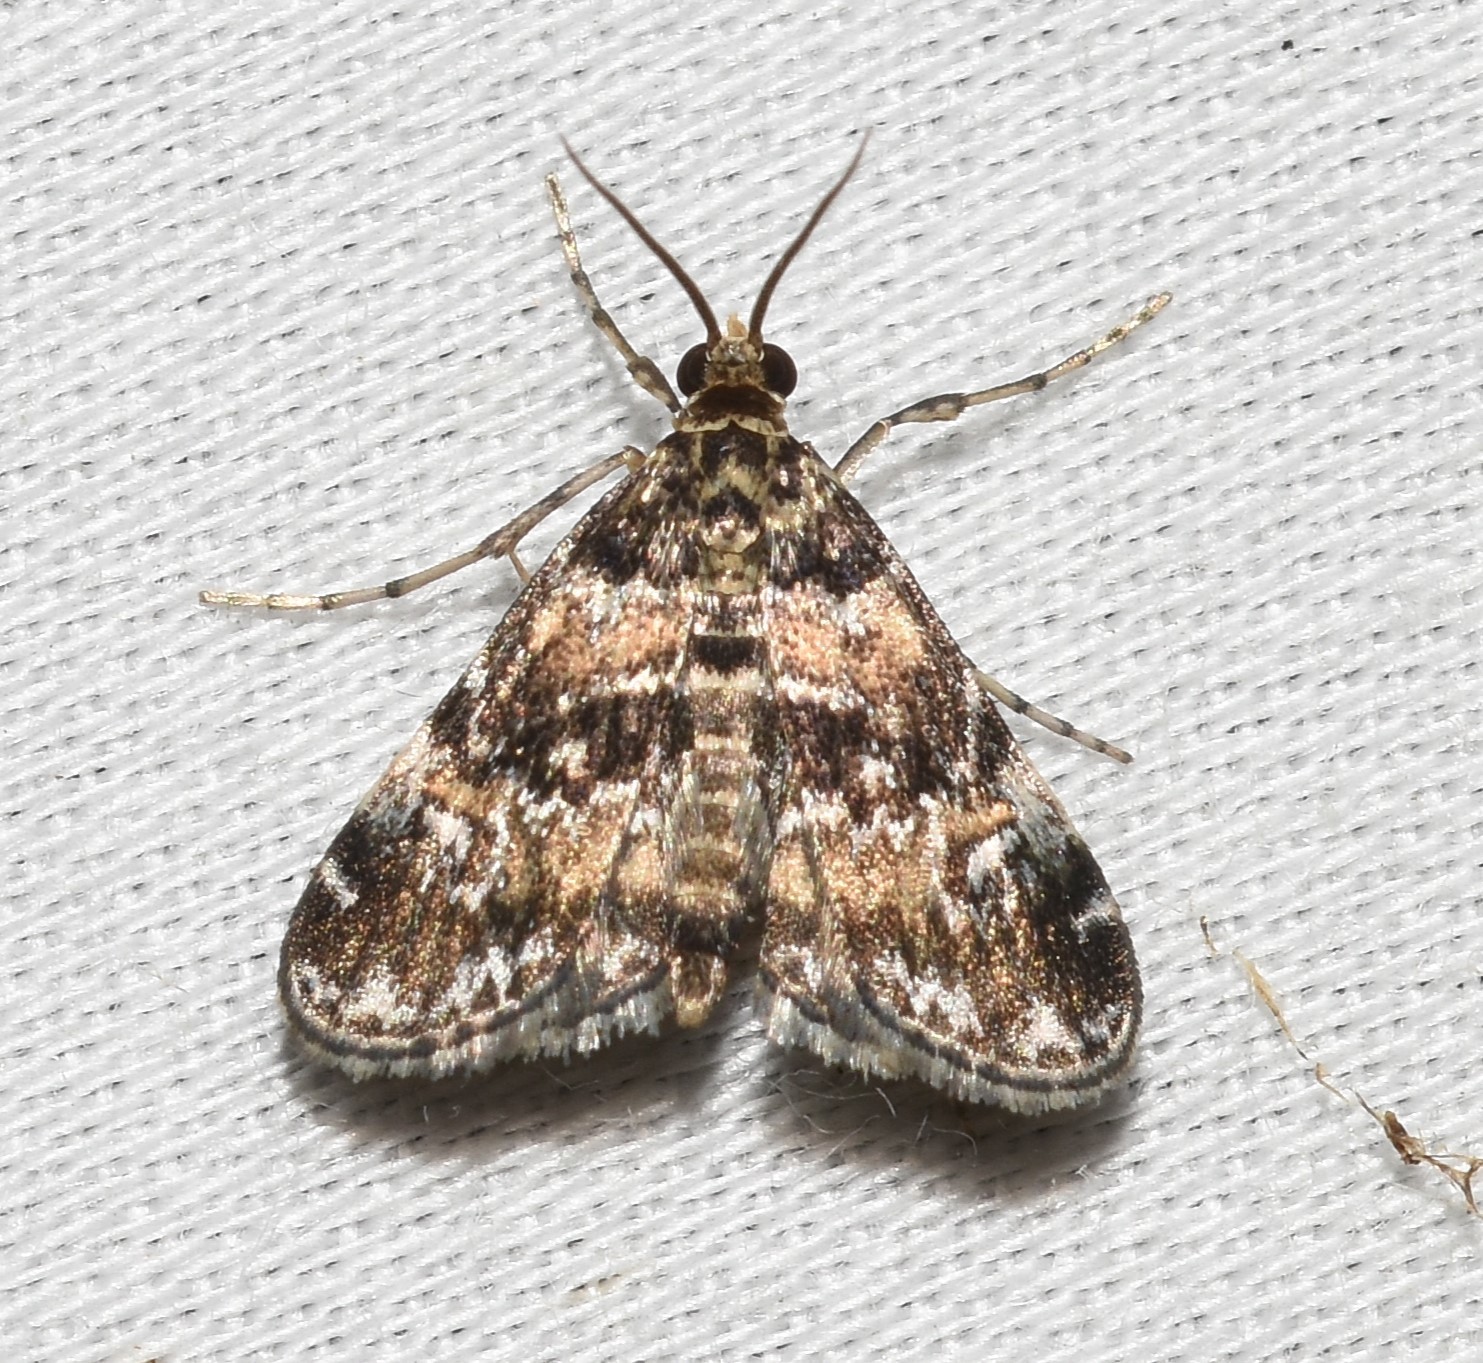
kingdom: Animalia
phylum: Arthropoda
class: Insecta
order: Lepidoptera
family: Crambidae
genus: Elophila
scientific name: Elophila obliteralis
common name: Waterlily leafcutter moth
